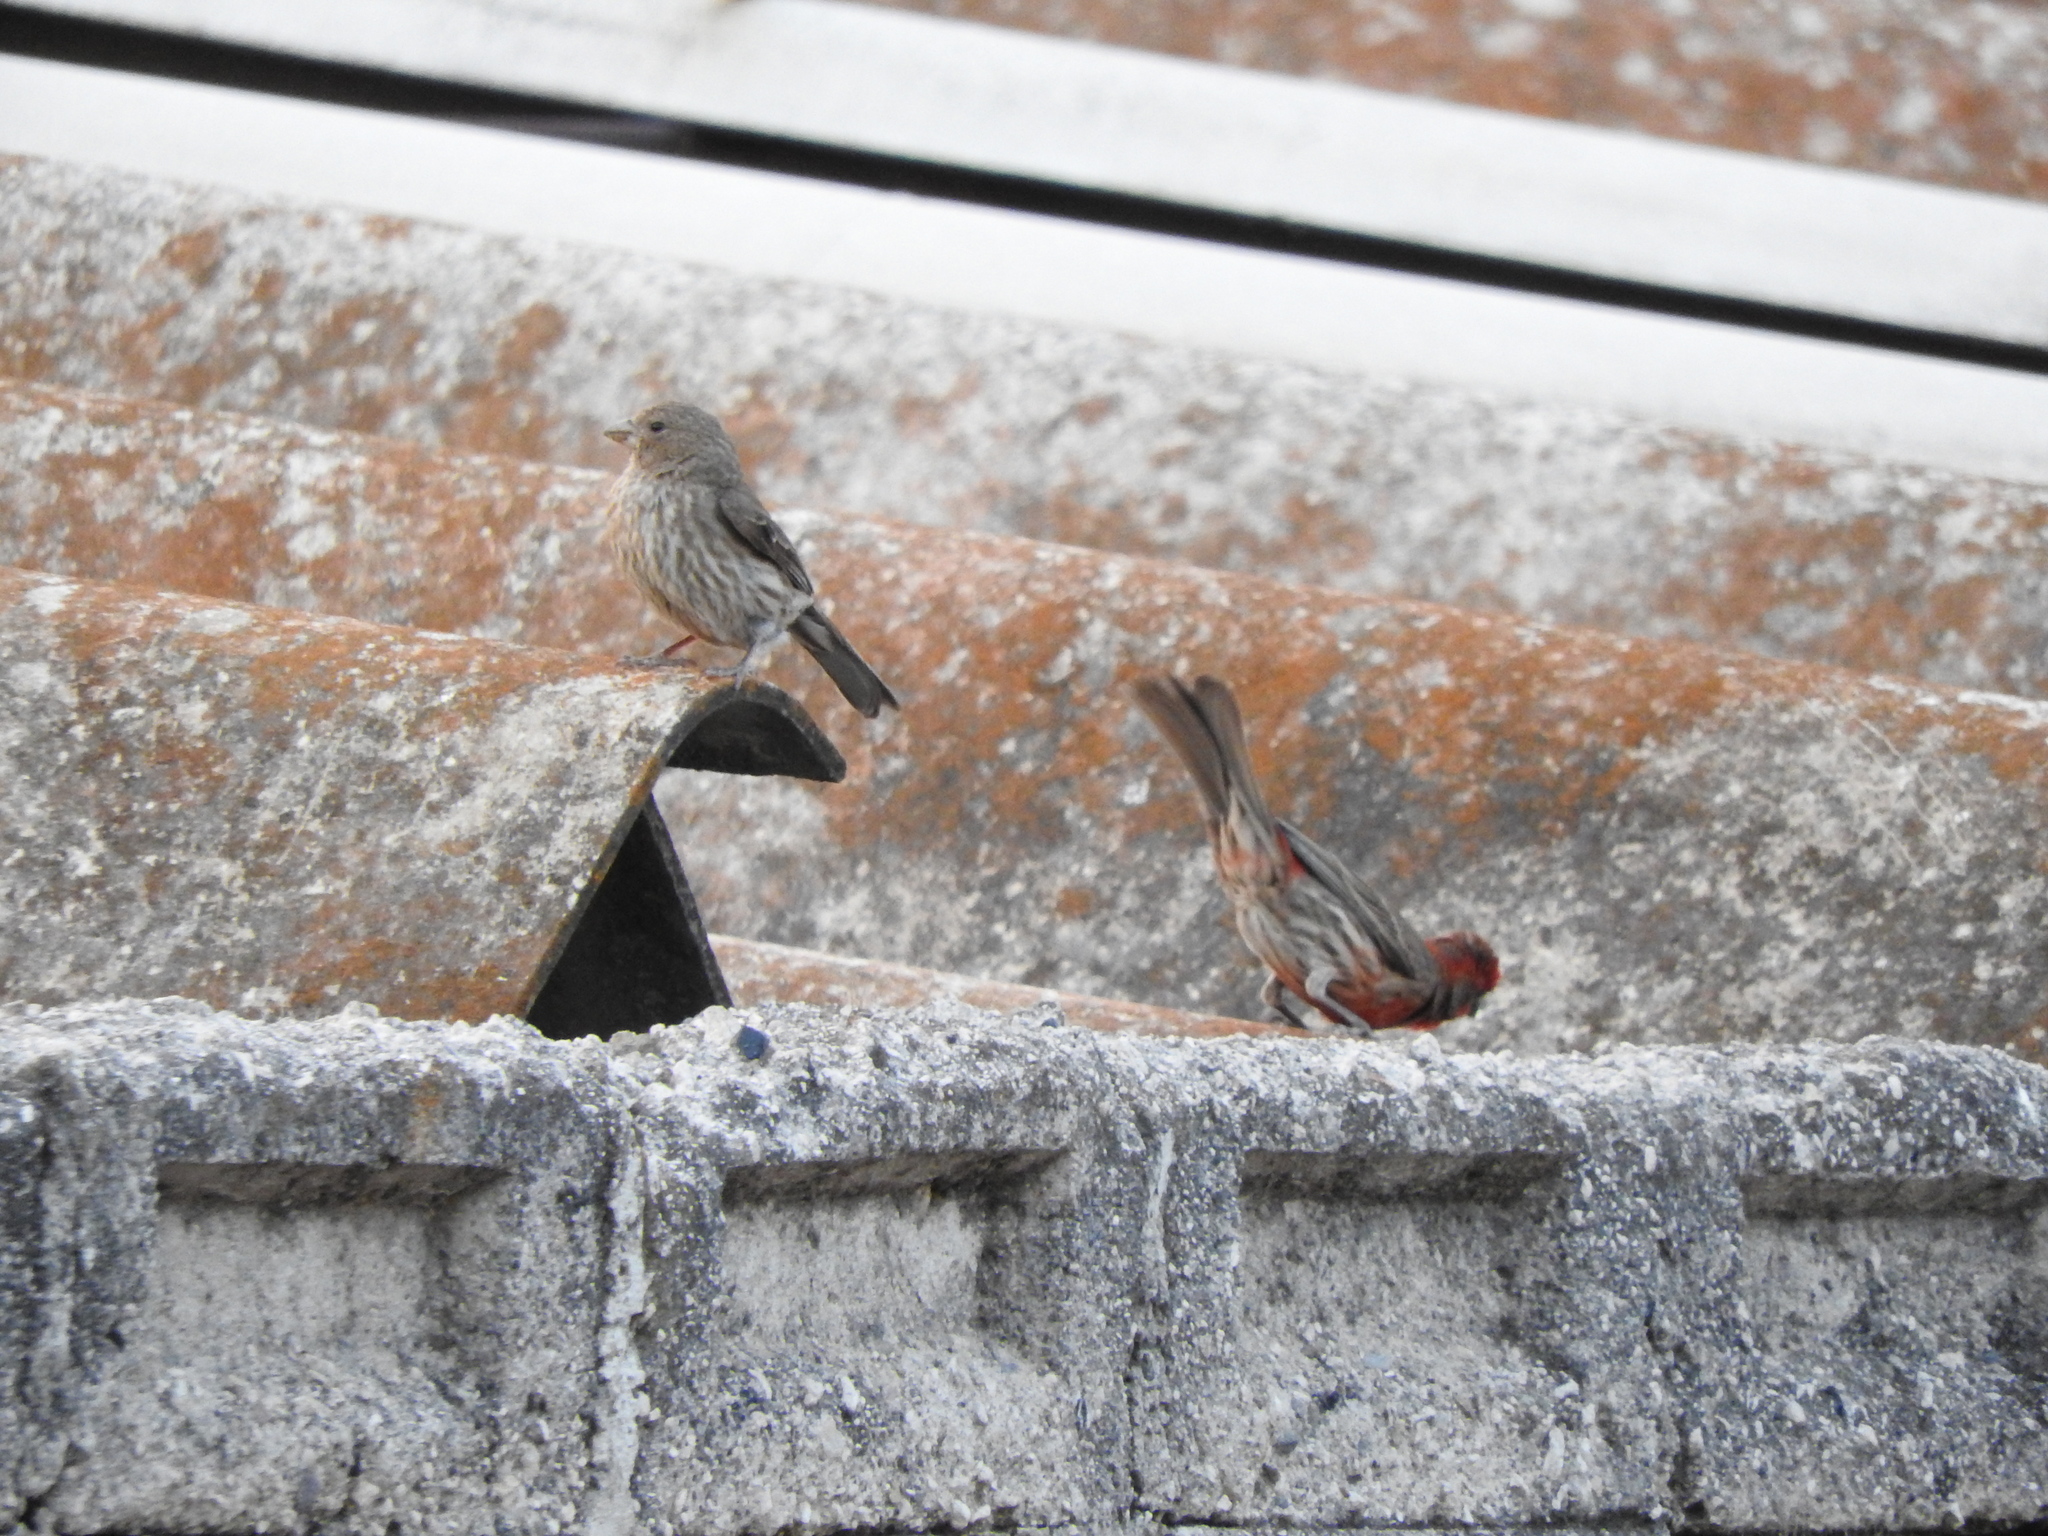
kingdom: Animalia
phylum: Chordata
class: Aves
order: Passeriformes
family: Fringillidae
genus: Haemorhous
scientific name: Haemorhous mexicanus
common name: House finch
